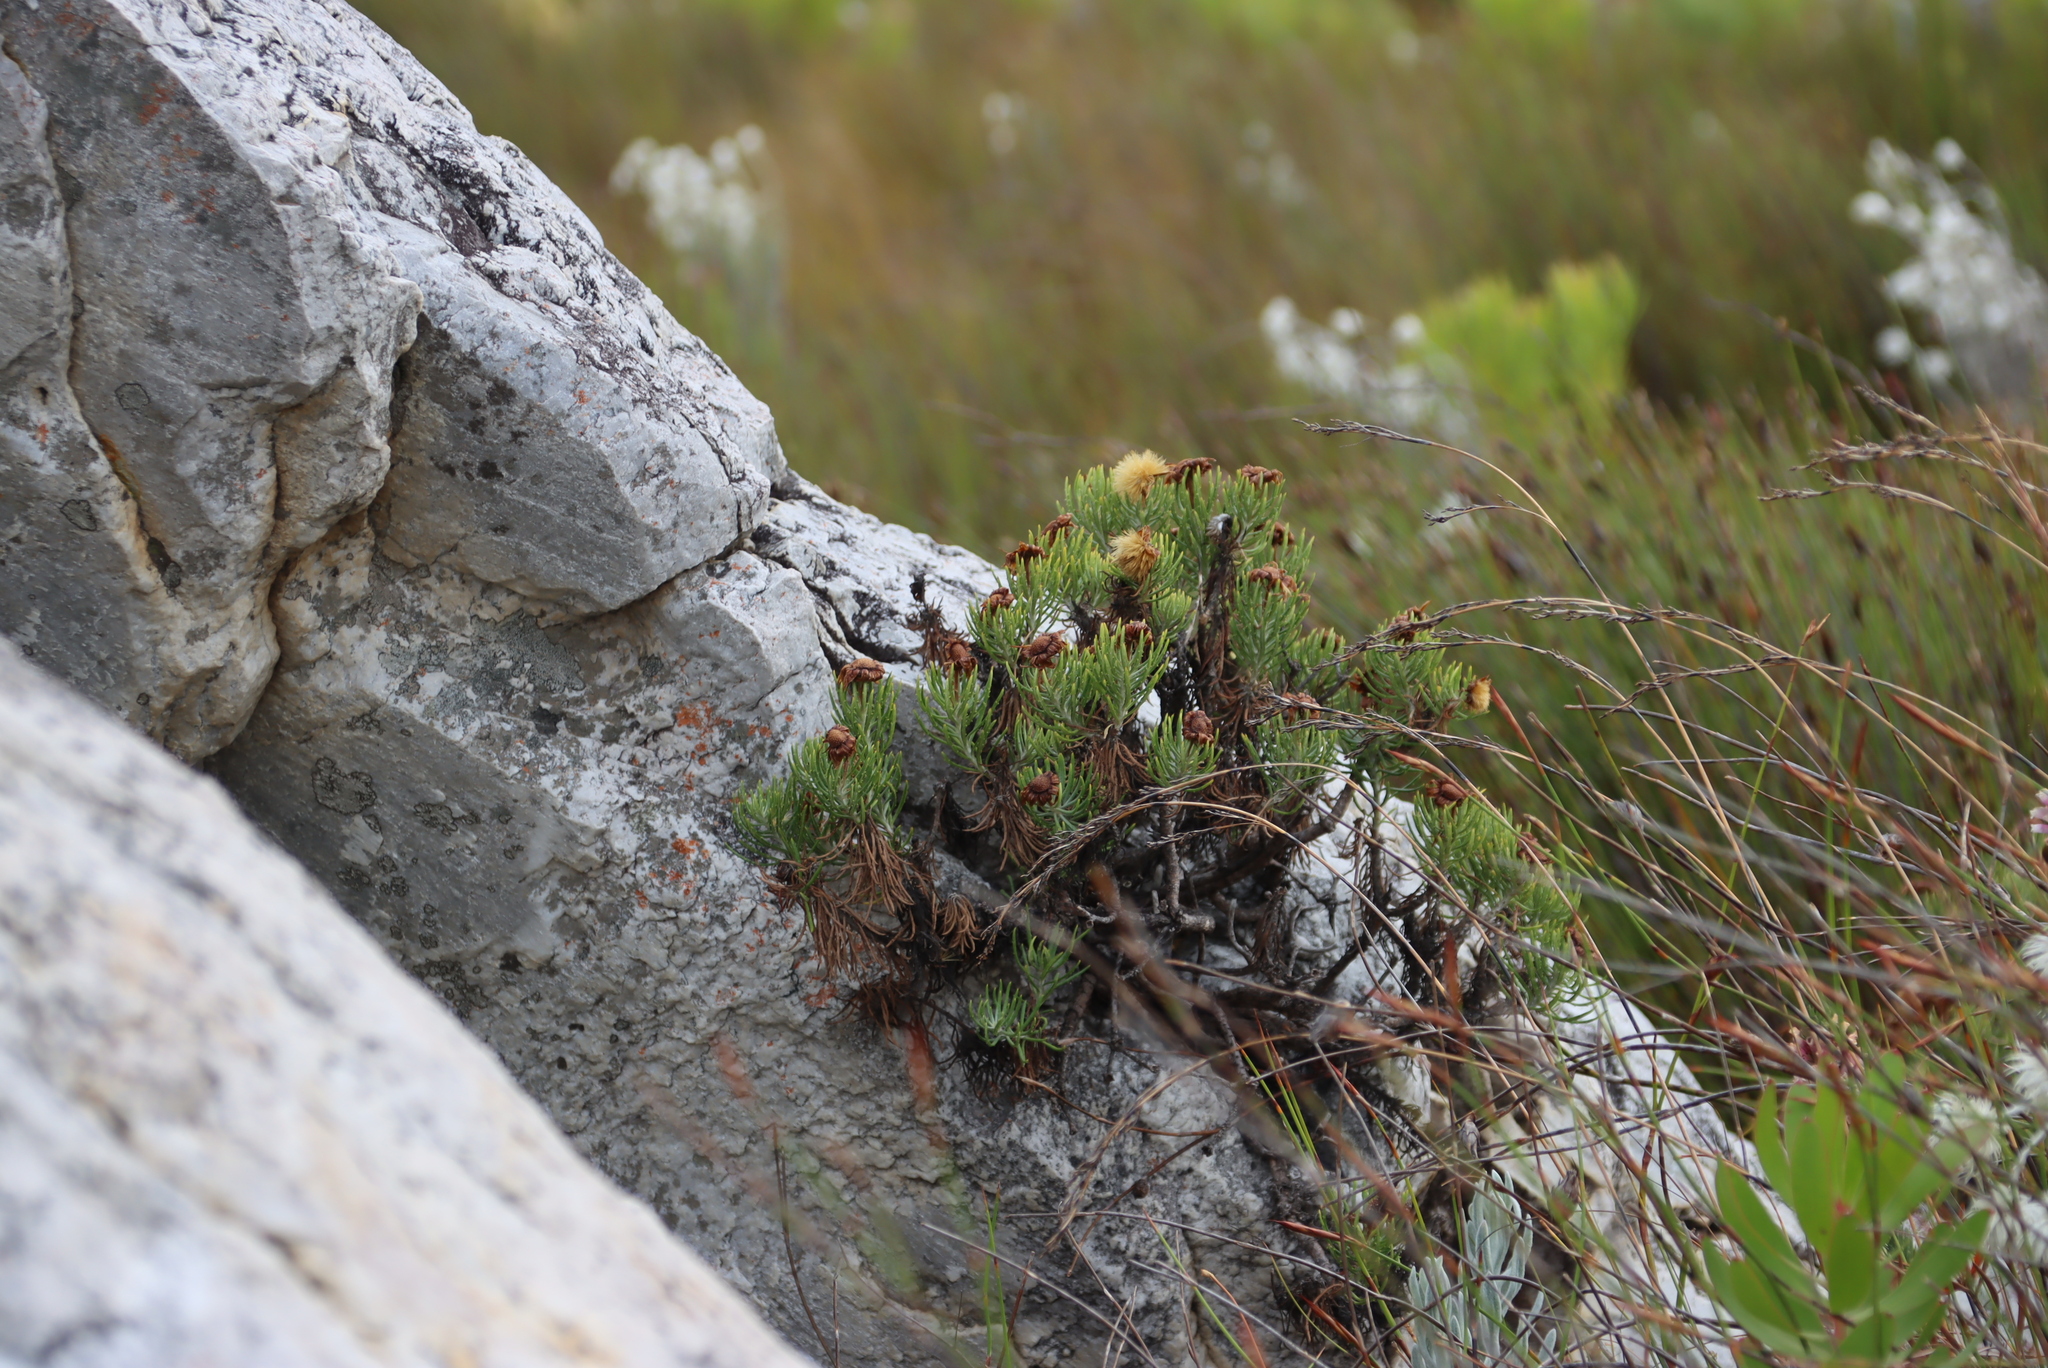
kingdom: Plantae
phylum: Tracheophyta
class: Magnoliopsida
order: Asterales
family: Asteraceae
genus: Heterolepis
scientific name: Heterolepis aliena
